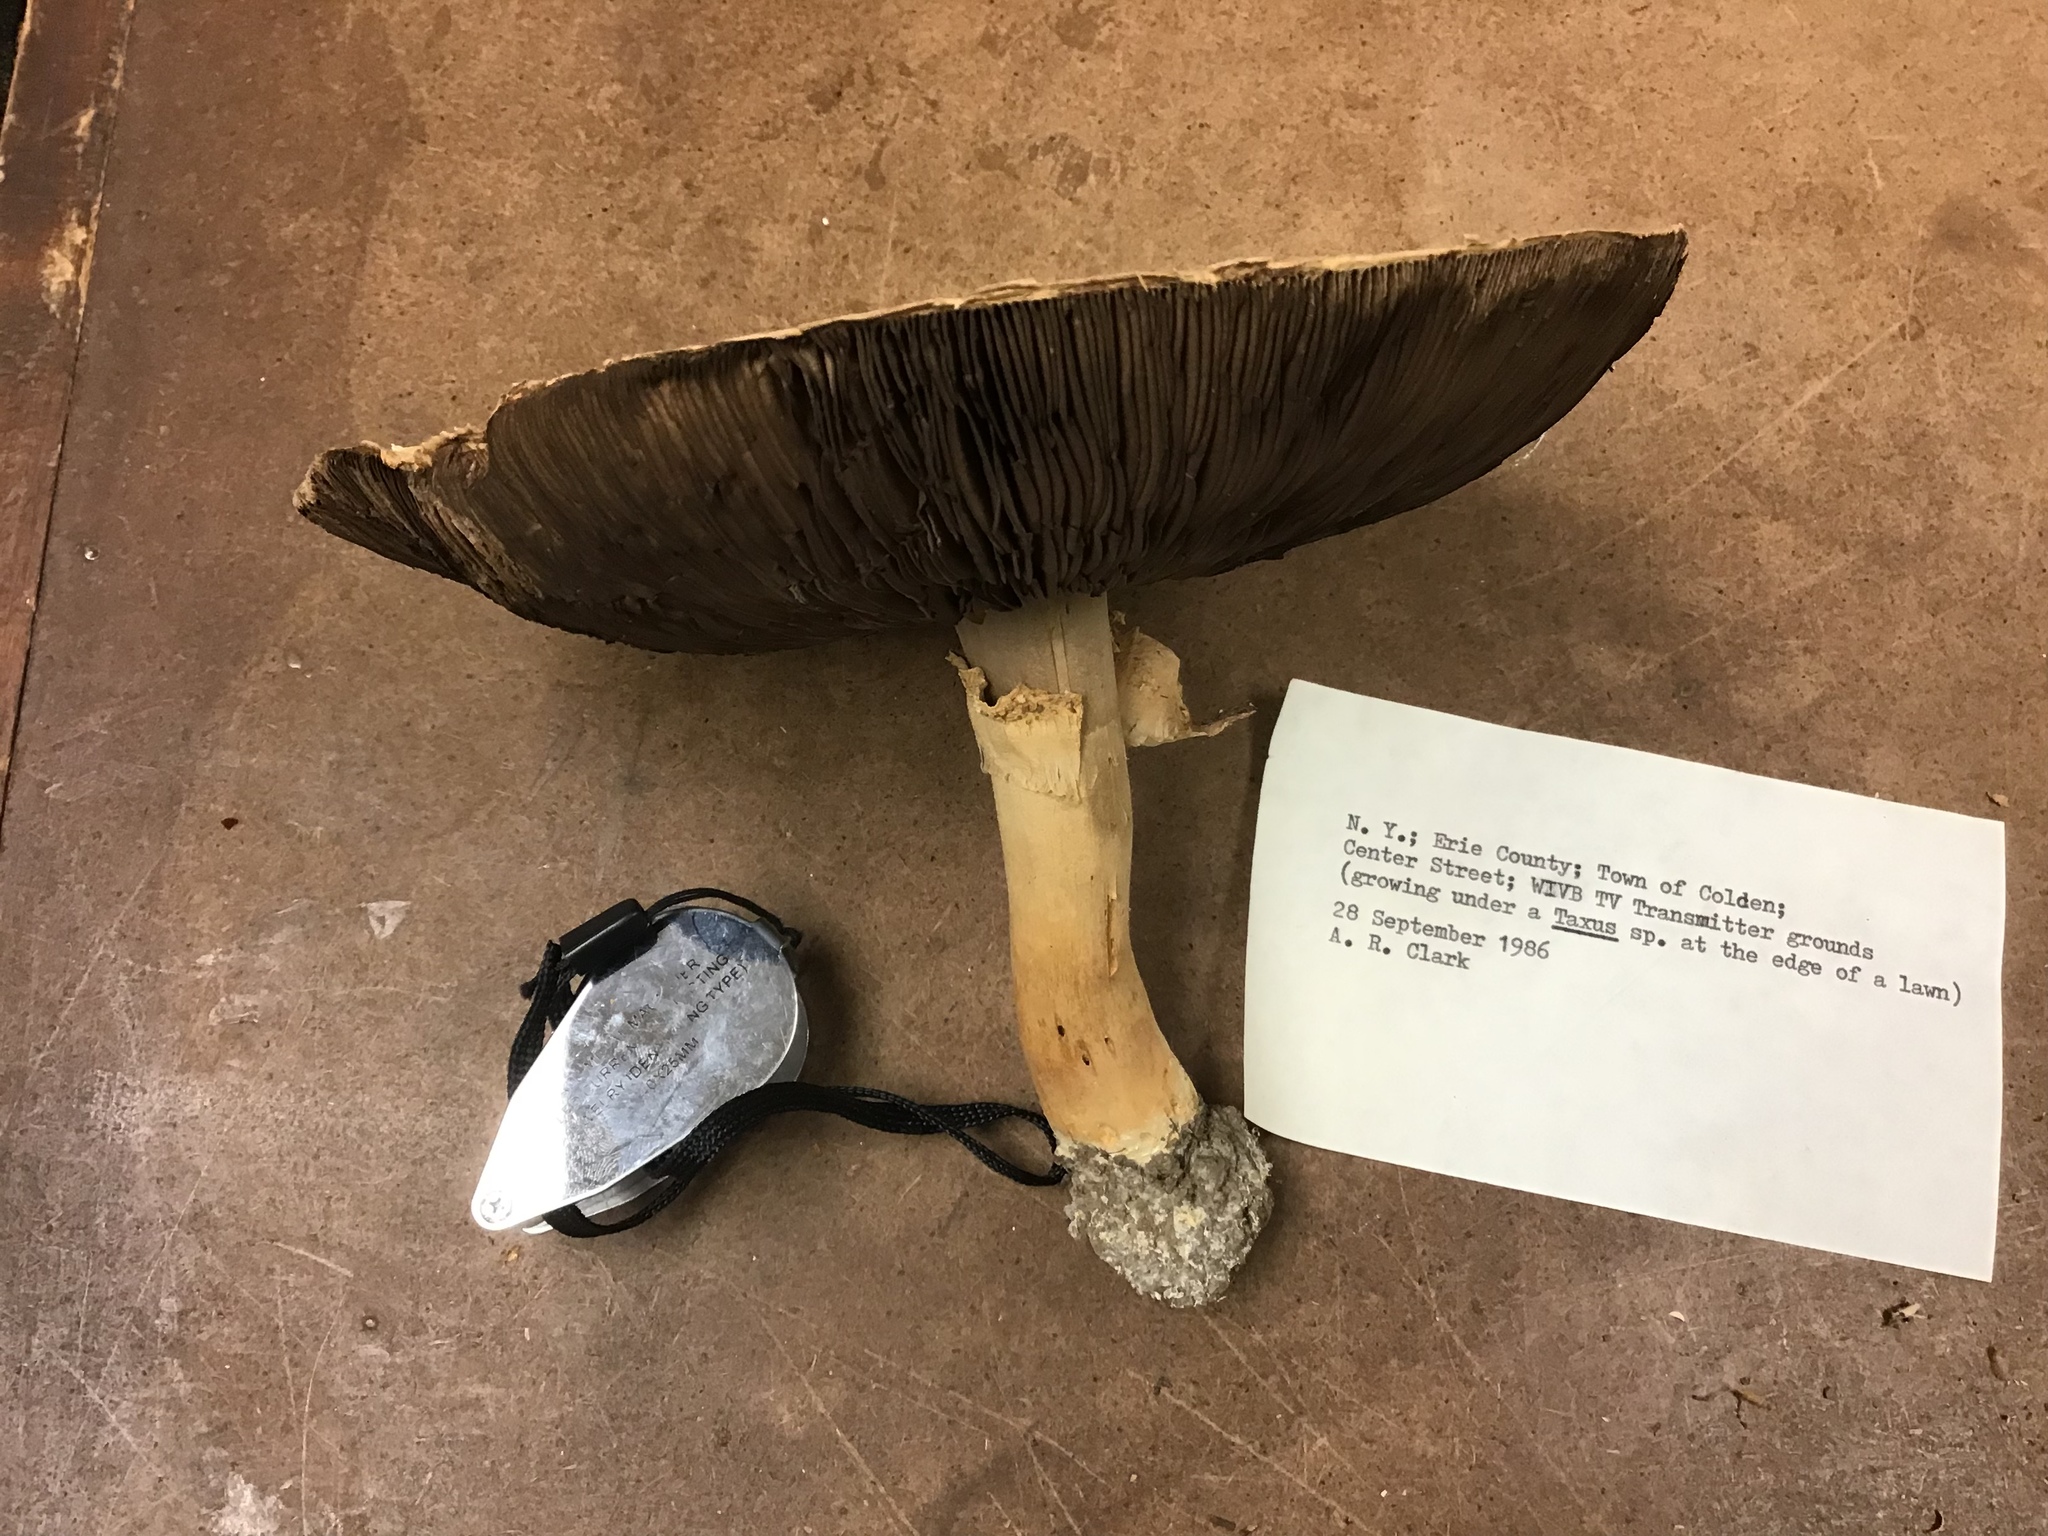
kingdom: Fungi
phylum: Basidiomycota
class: Agaricomycetes
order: Agaricales
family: Agaricaceae
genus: Agaricus
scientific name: Agaricus arvensis
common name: Horse mushroom
